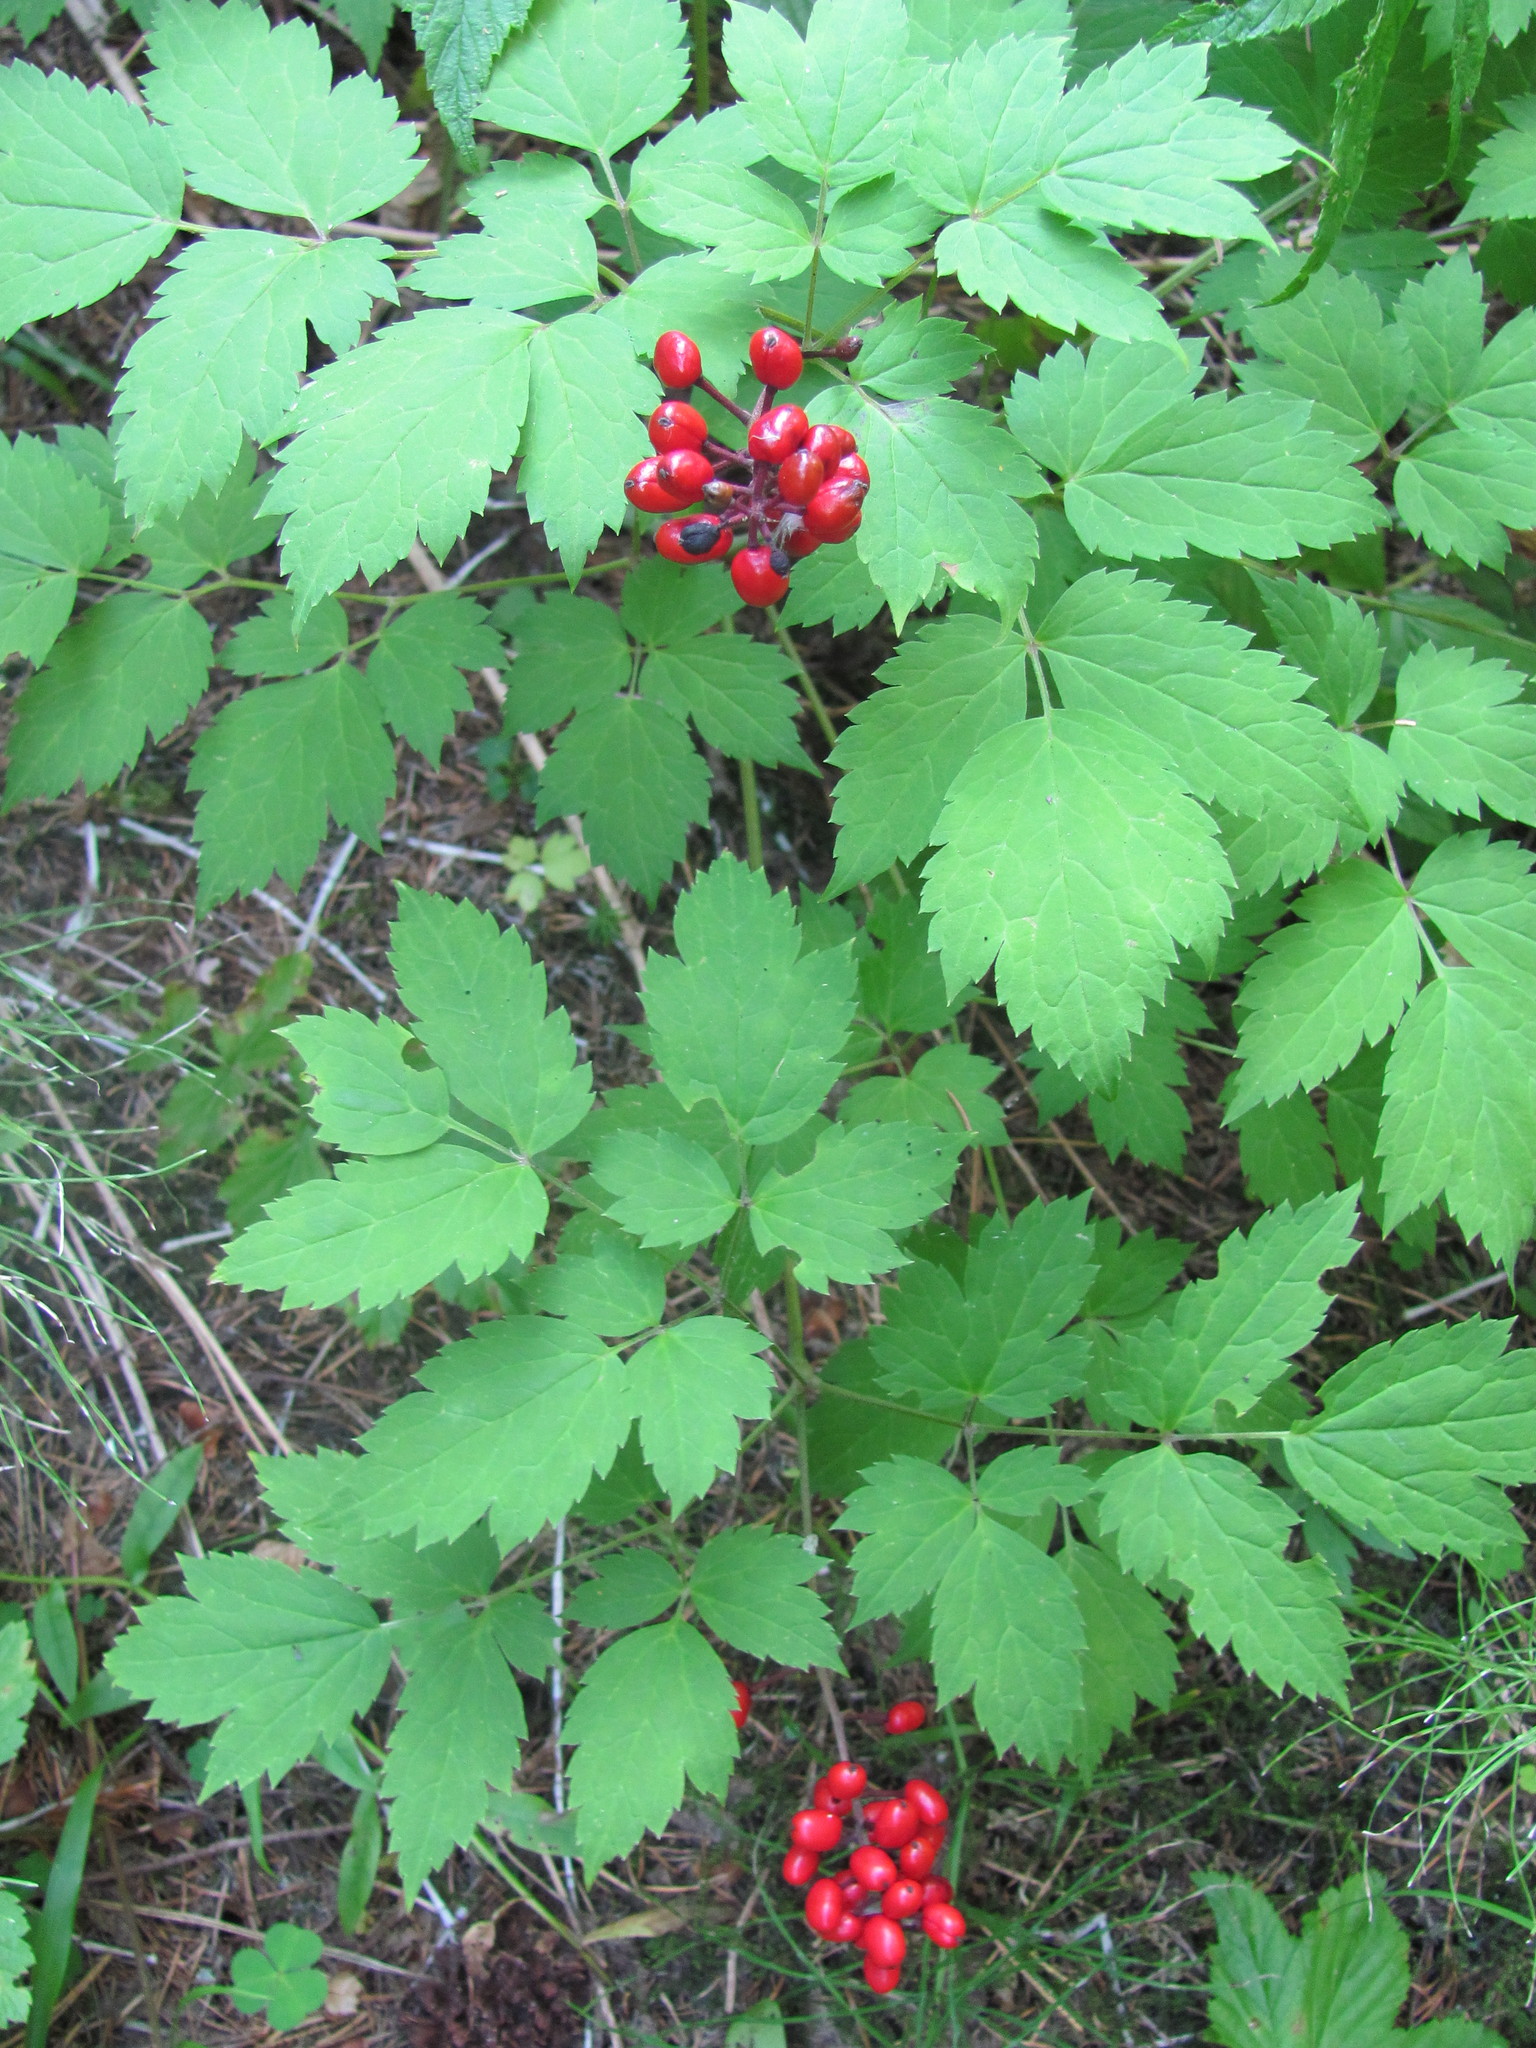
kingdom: Plantae
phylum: Tracheophyta
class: Magnoliopsida
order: Ranunculales
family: Ranunculaceae
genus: Actaea
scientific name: Actaea erythrocarpa
